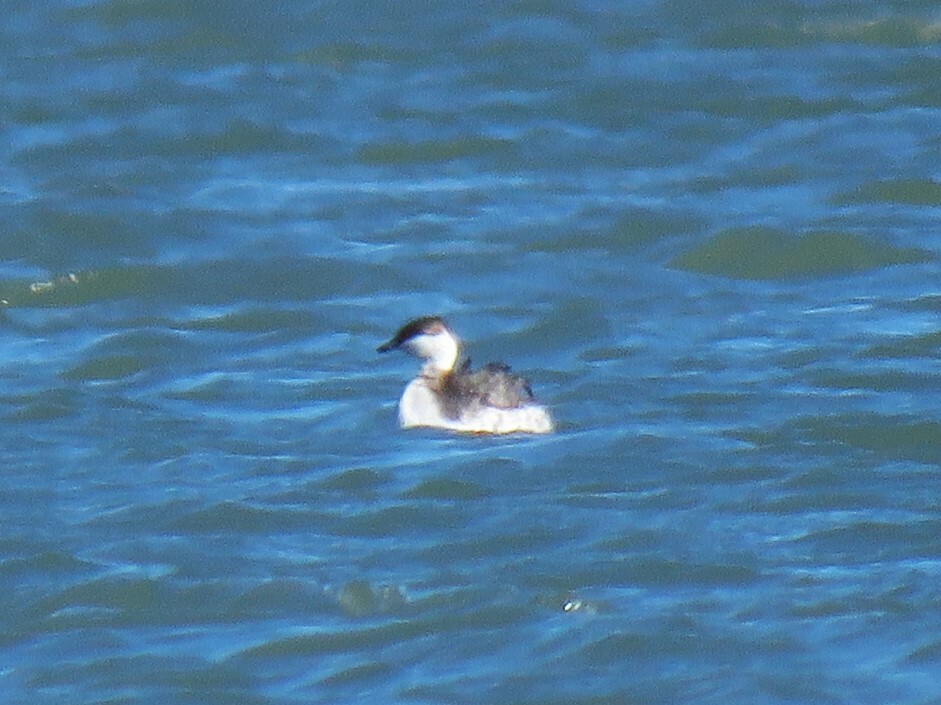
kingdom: Animalia
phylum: Chordata
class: Aves
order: Podicipediformes
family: Podicipedidae
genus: Podiceps
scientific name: Podiceps auritus
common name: Horned grebe
